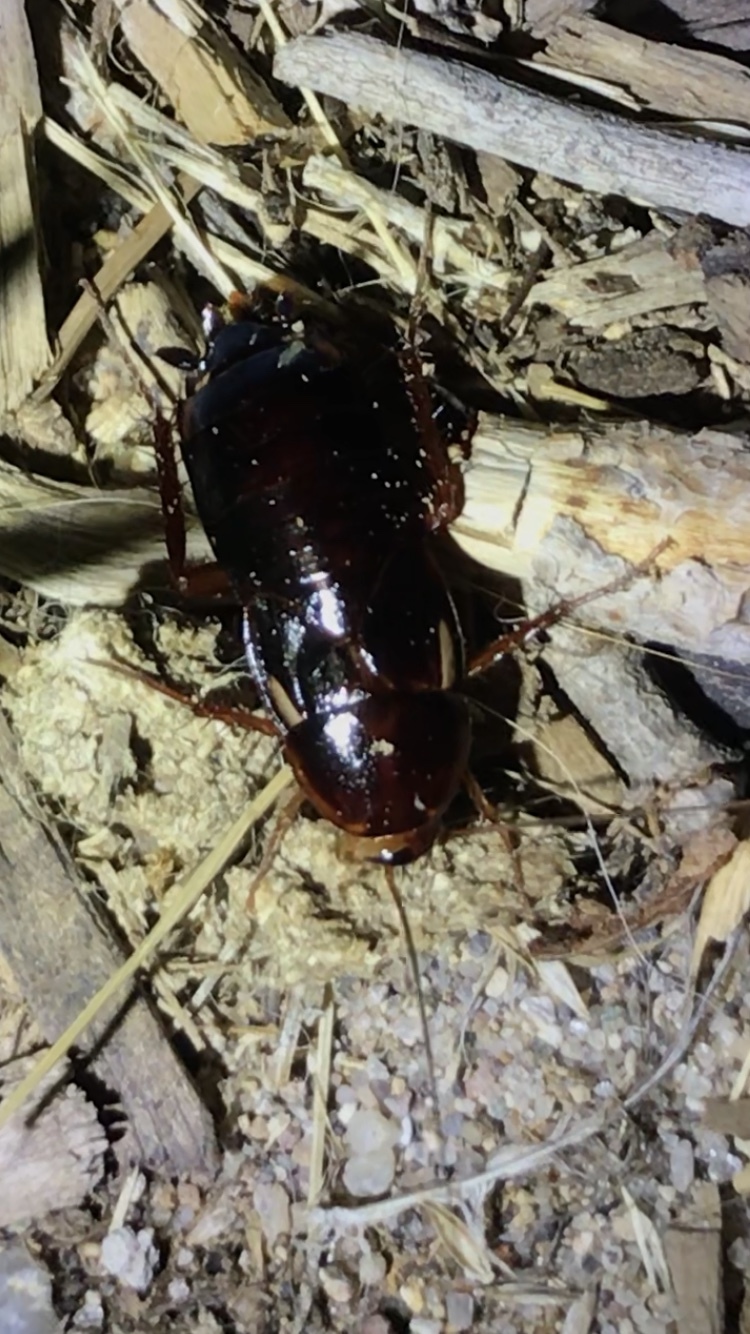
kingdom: Animalia
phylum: Arthropoda
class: Insecta
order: Blattodea
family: Blattidae
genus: Periplaneta
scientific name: Periplaneta lateralis
